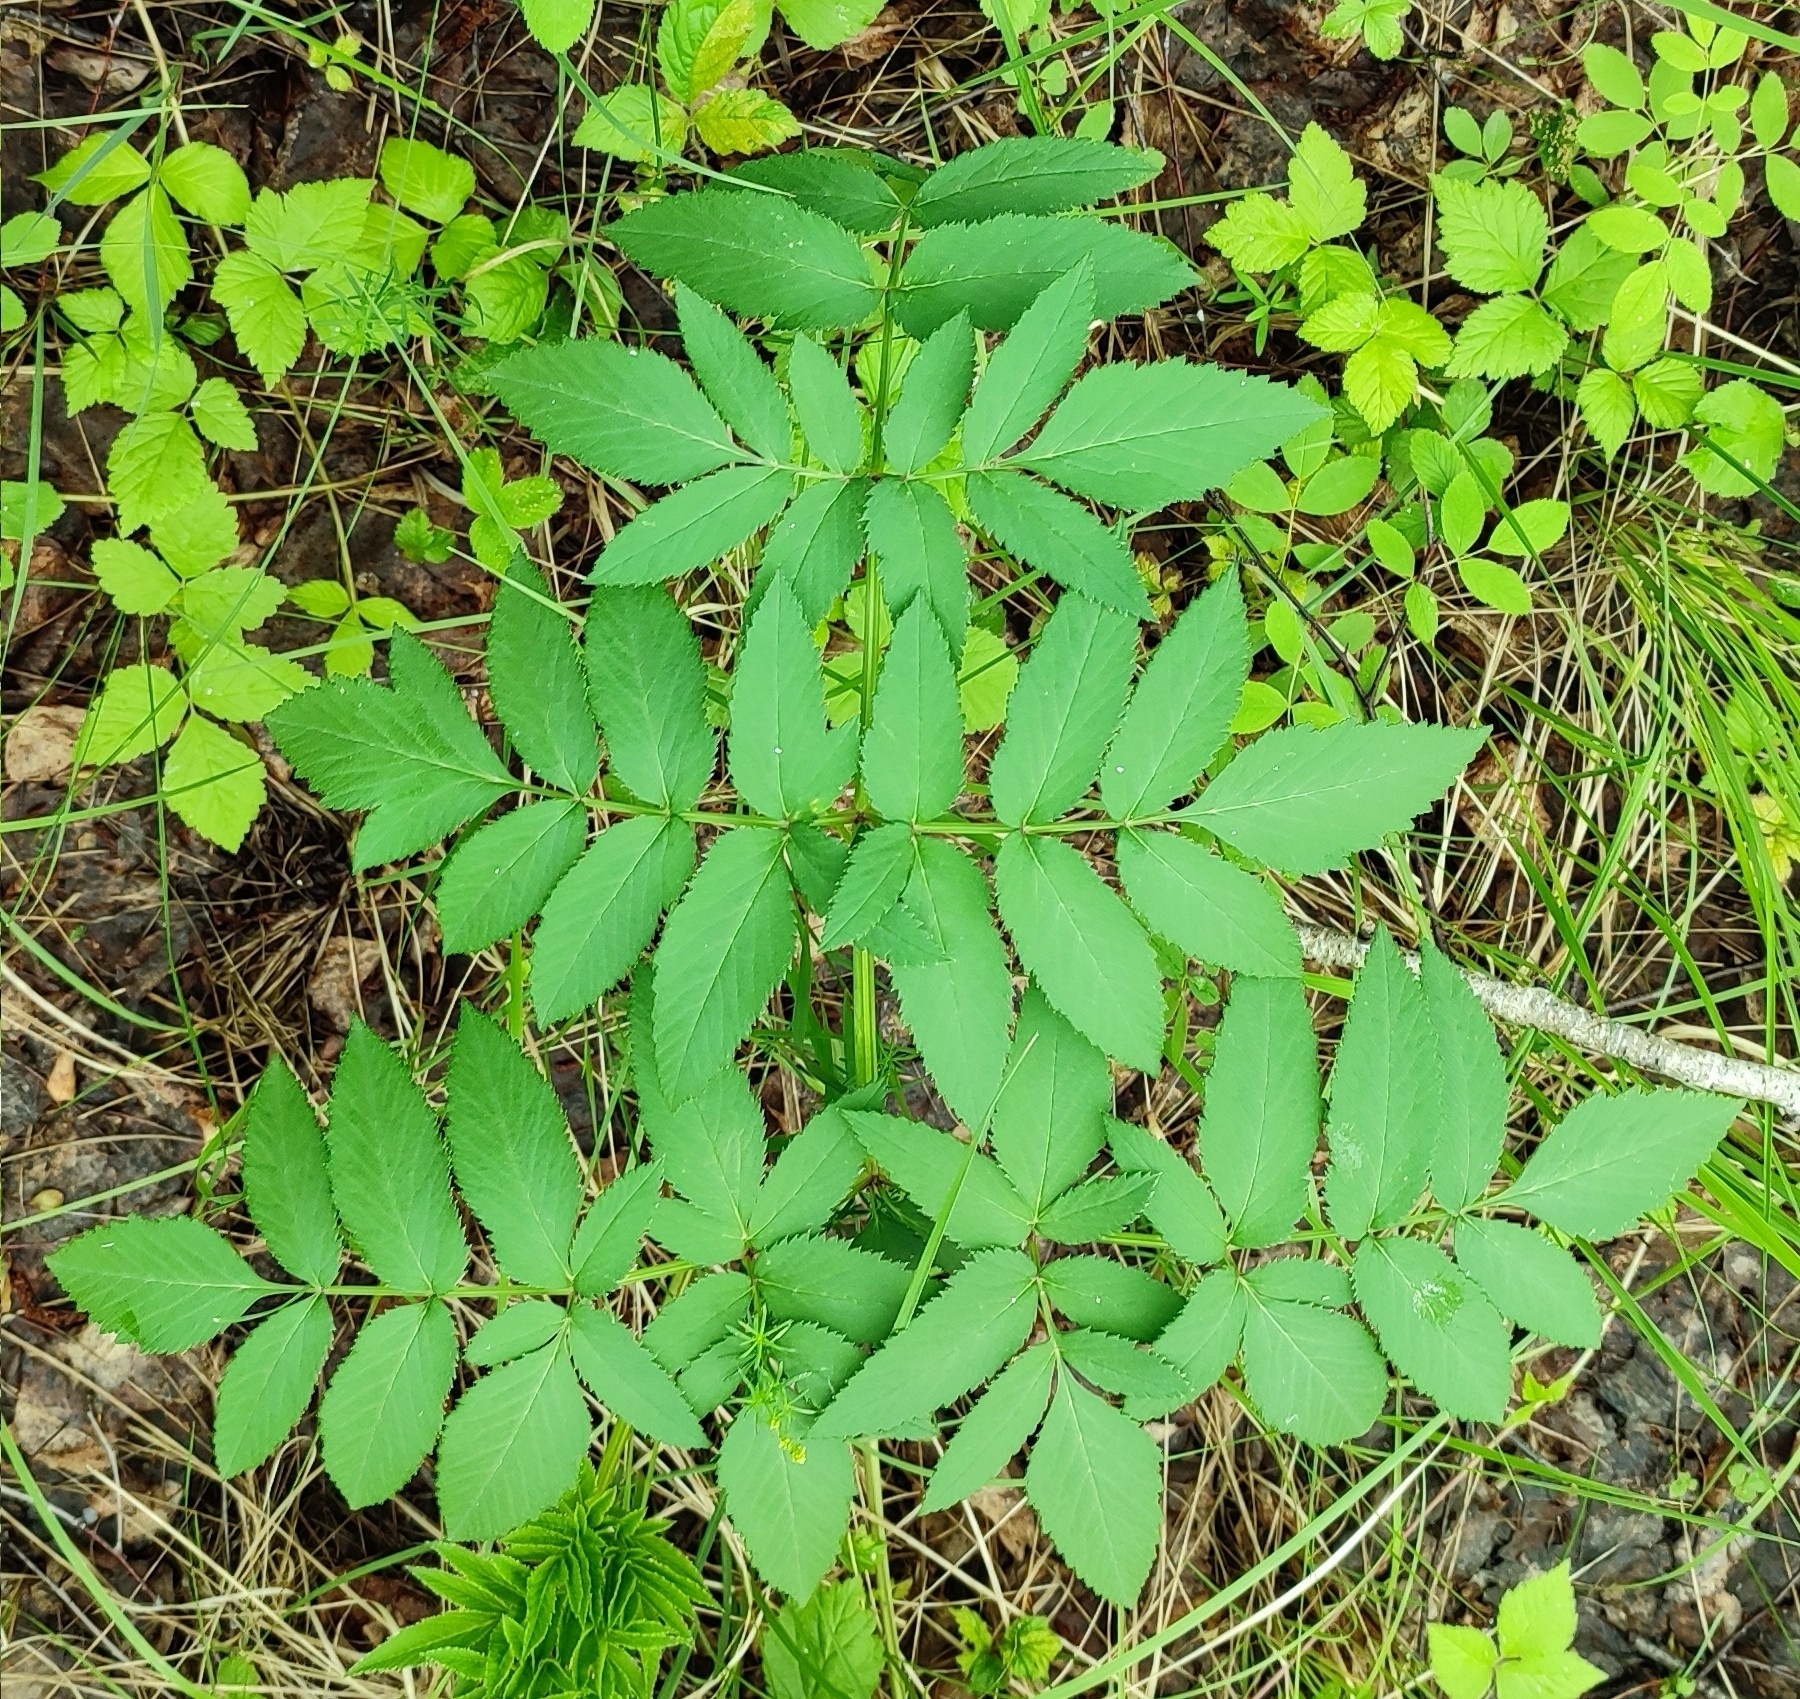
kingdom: Plantae
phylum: Tracheophyta
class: Magnoliopsida
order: Apiales
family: Apiaceae
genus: Angelica
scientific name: Angelica sylvestris
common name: Wild angelica
